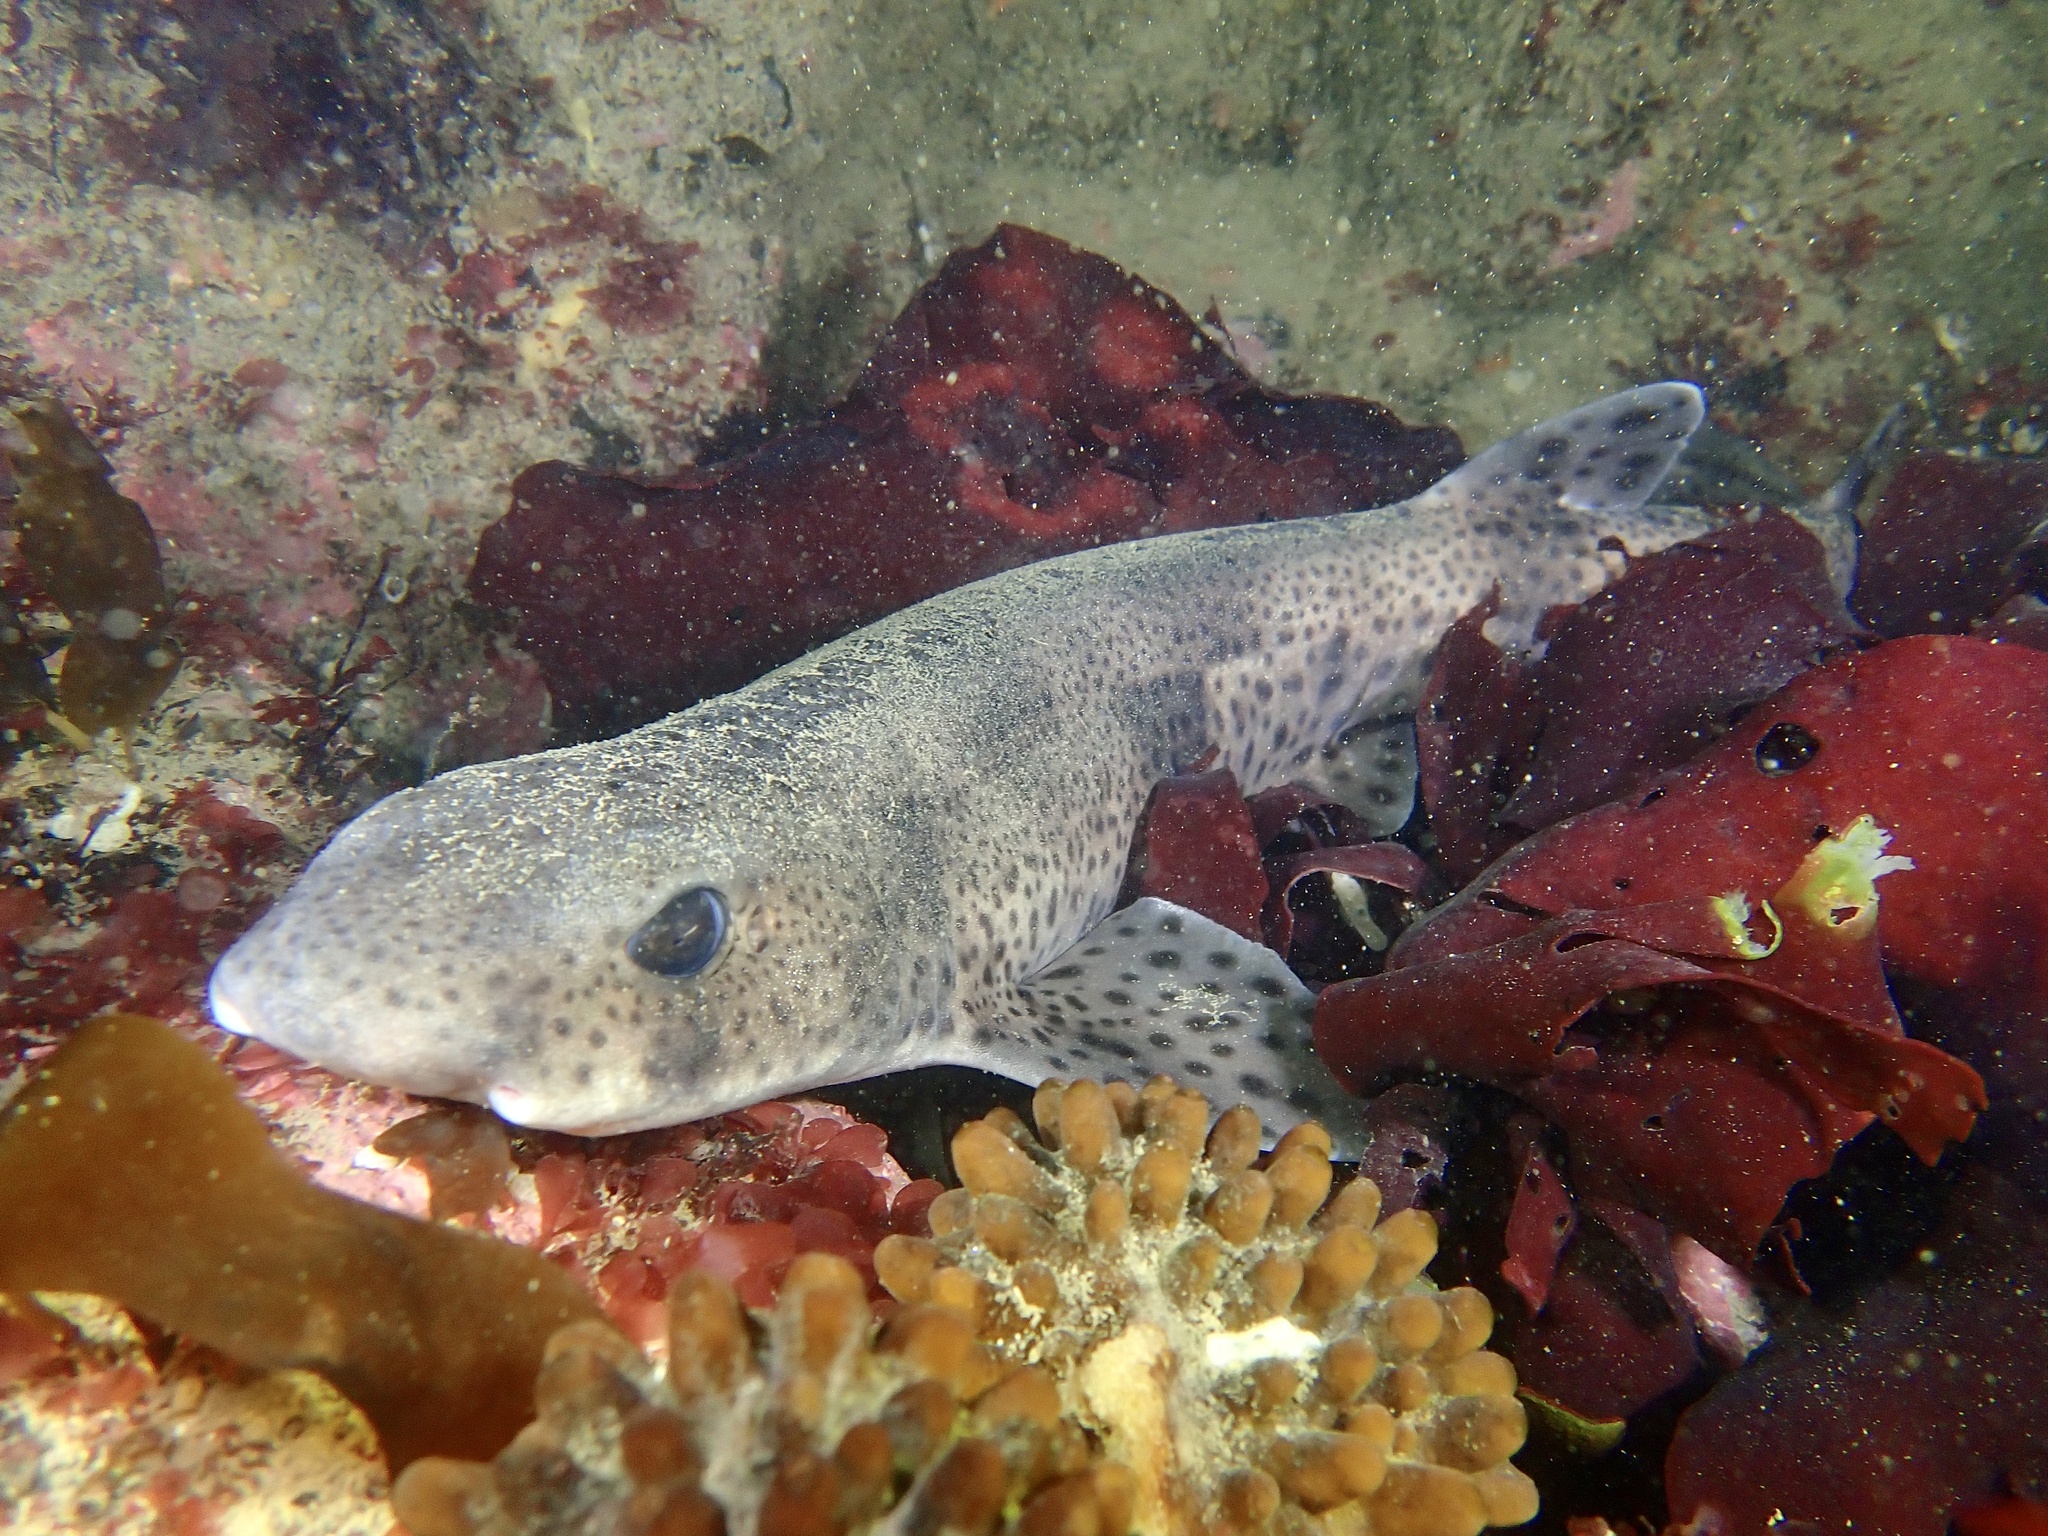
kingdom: Animalia
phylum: Chordata
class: Elasmobranchii
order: Carcharhiniformes
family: Scyliorhinidae
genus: Scyliorhinus
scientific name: Scyliorhinus canicula
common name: Lesser spotted dogfish
